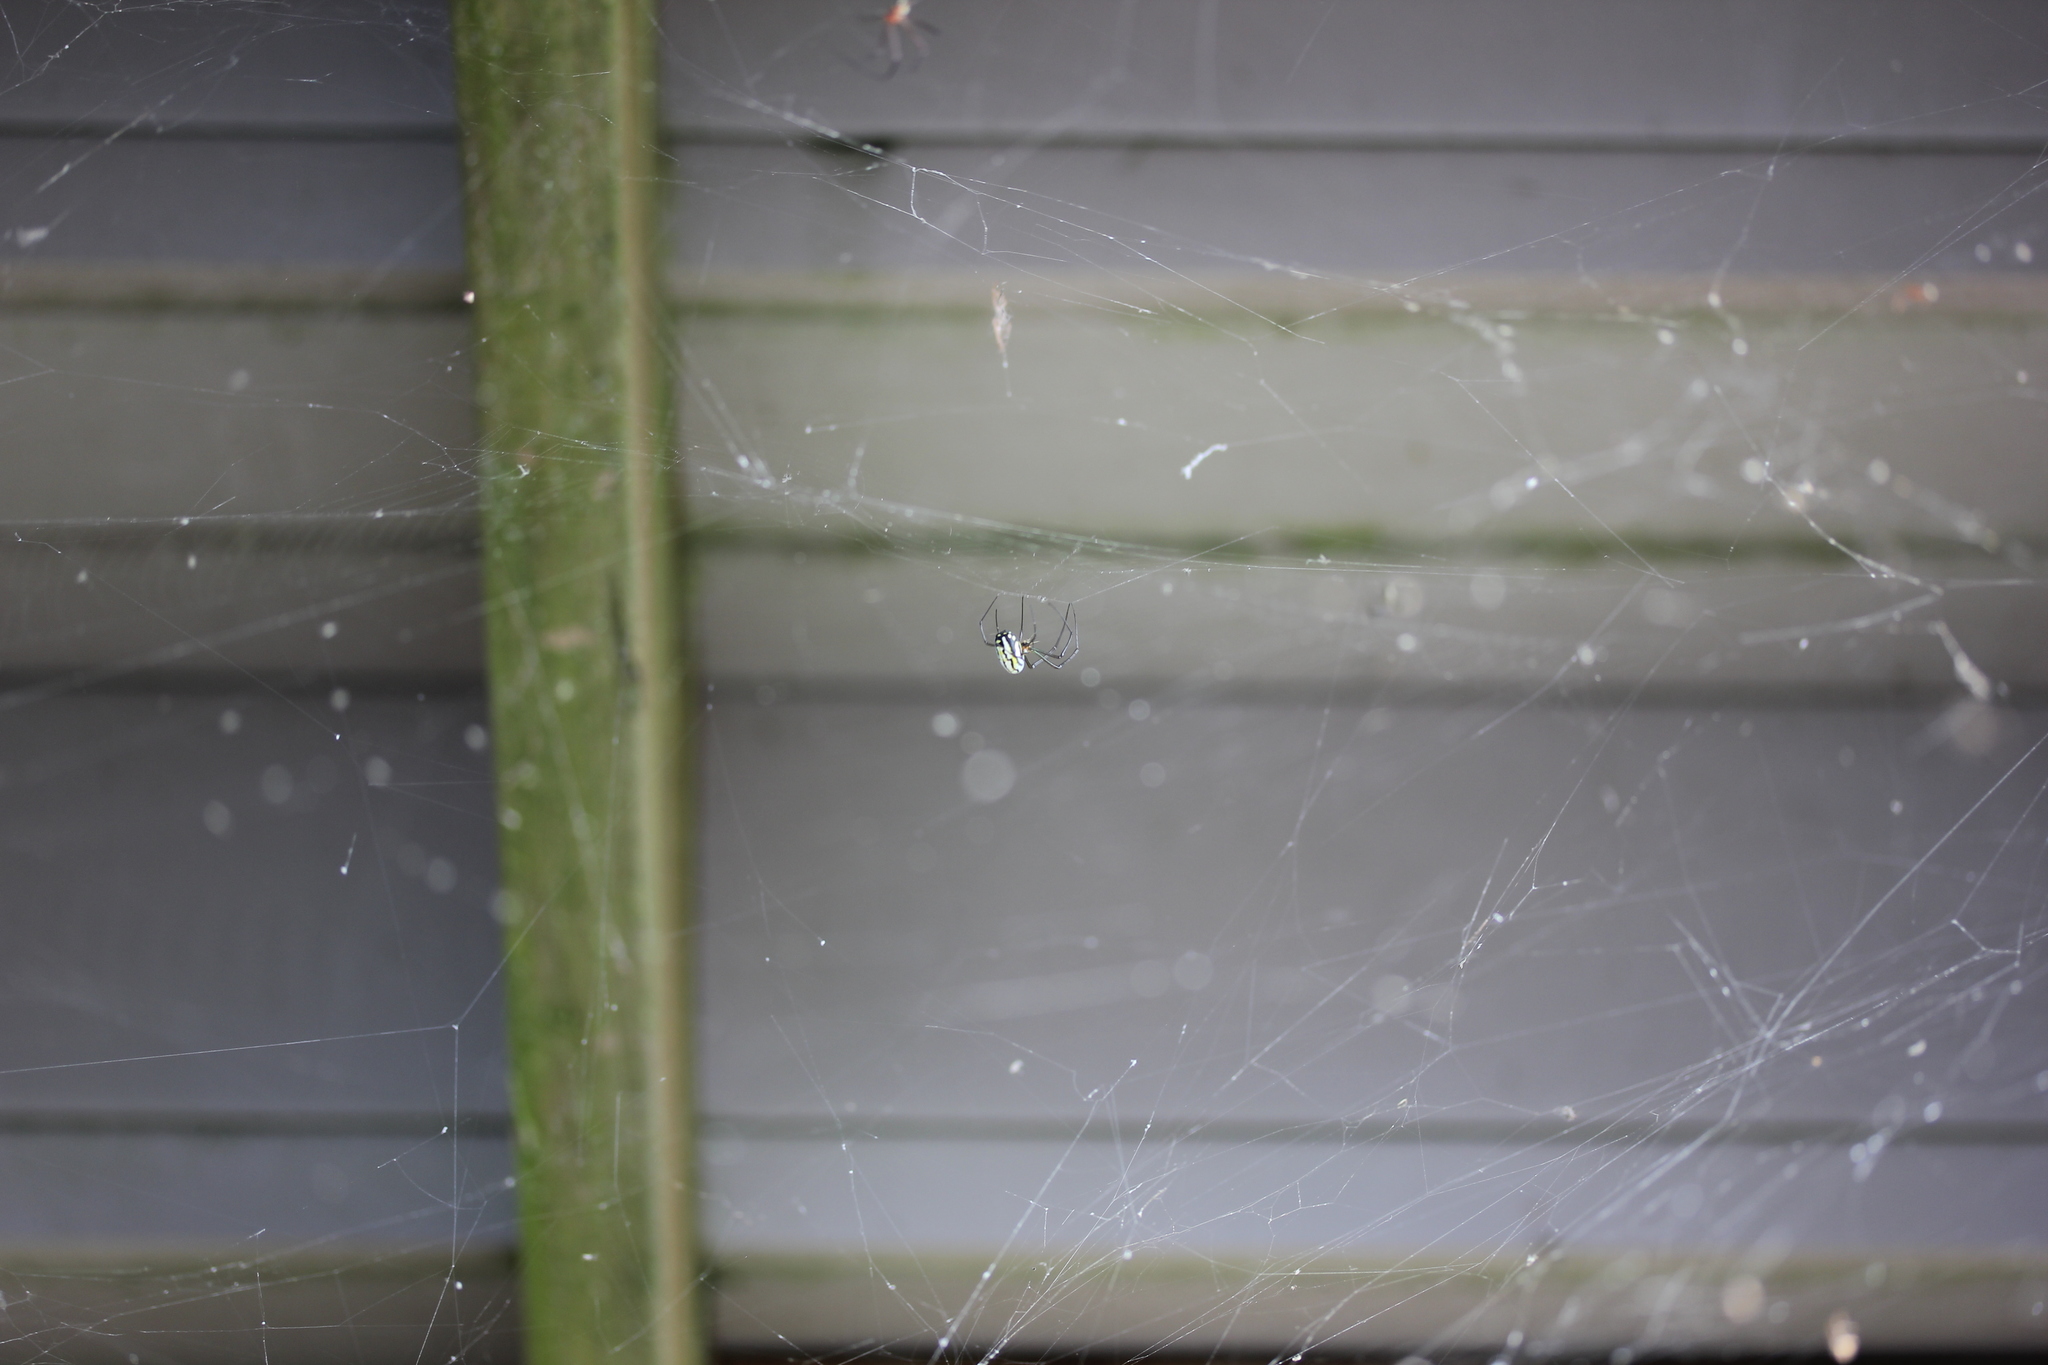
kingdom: Animalia
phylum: Arthropoda
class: Arachnida
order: Araneae
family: Tetragnathidae
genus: Leucauge
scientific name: Leucauge argyra
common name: Longjawed orb weavers
